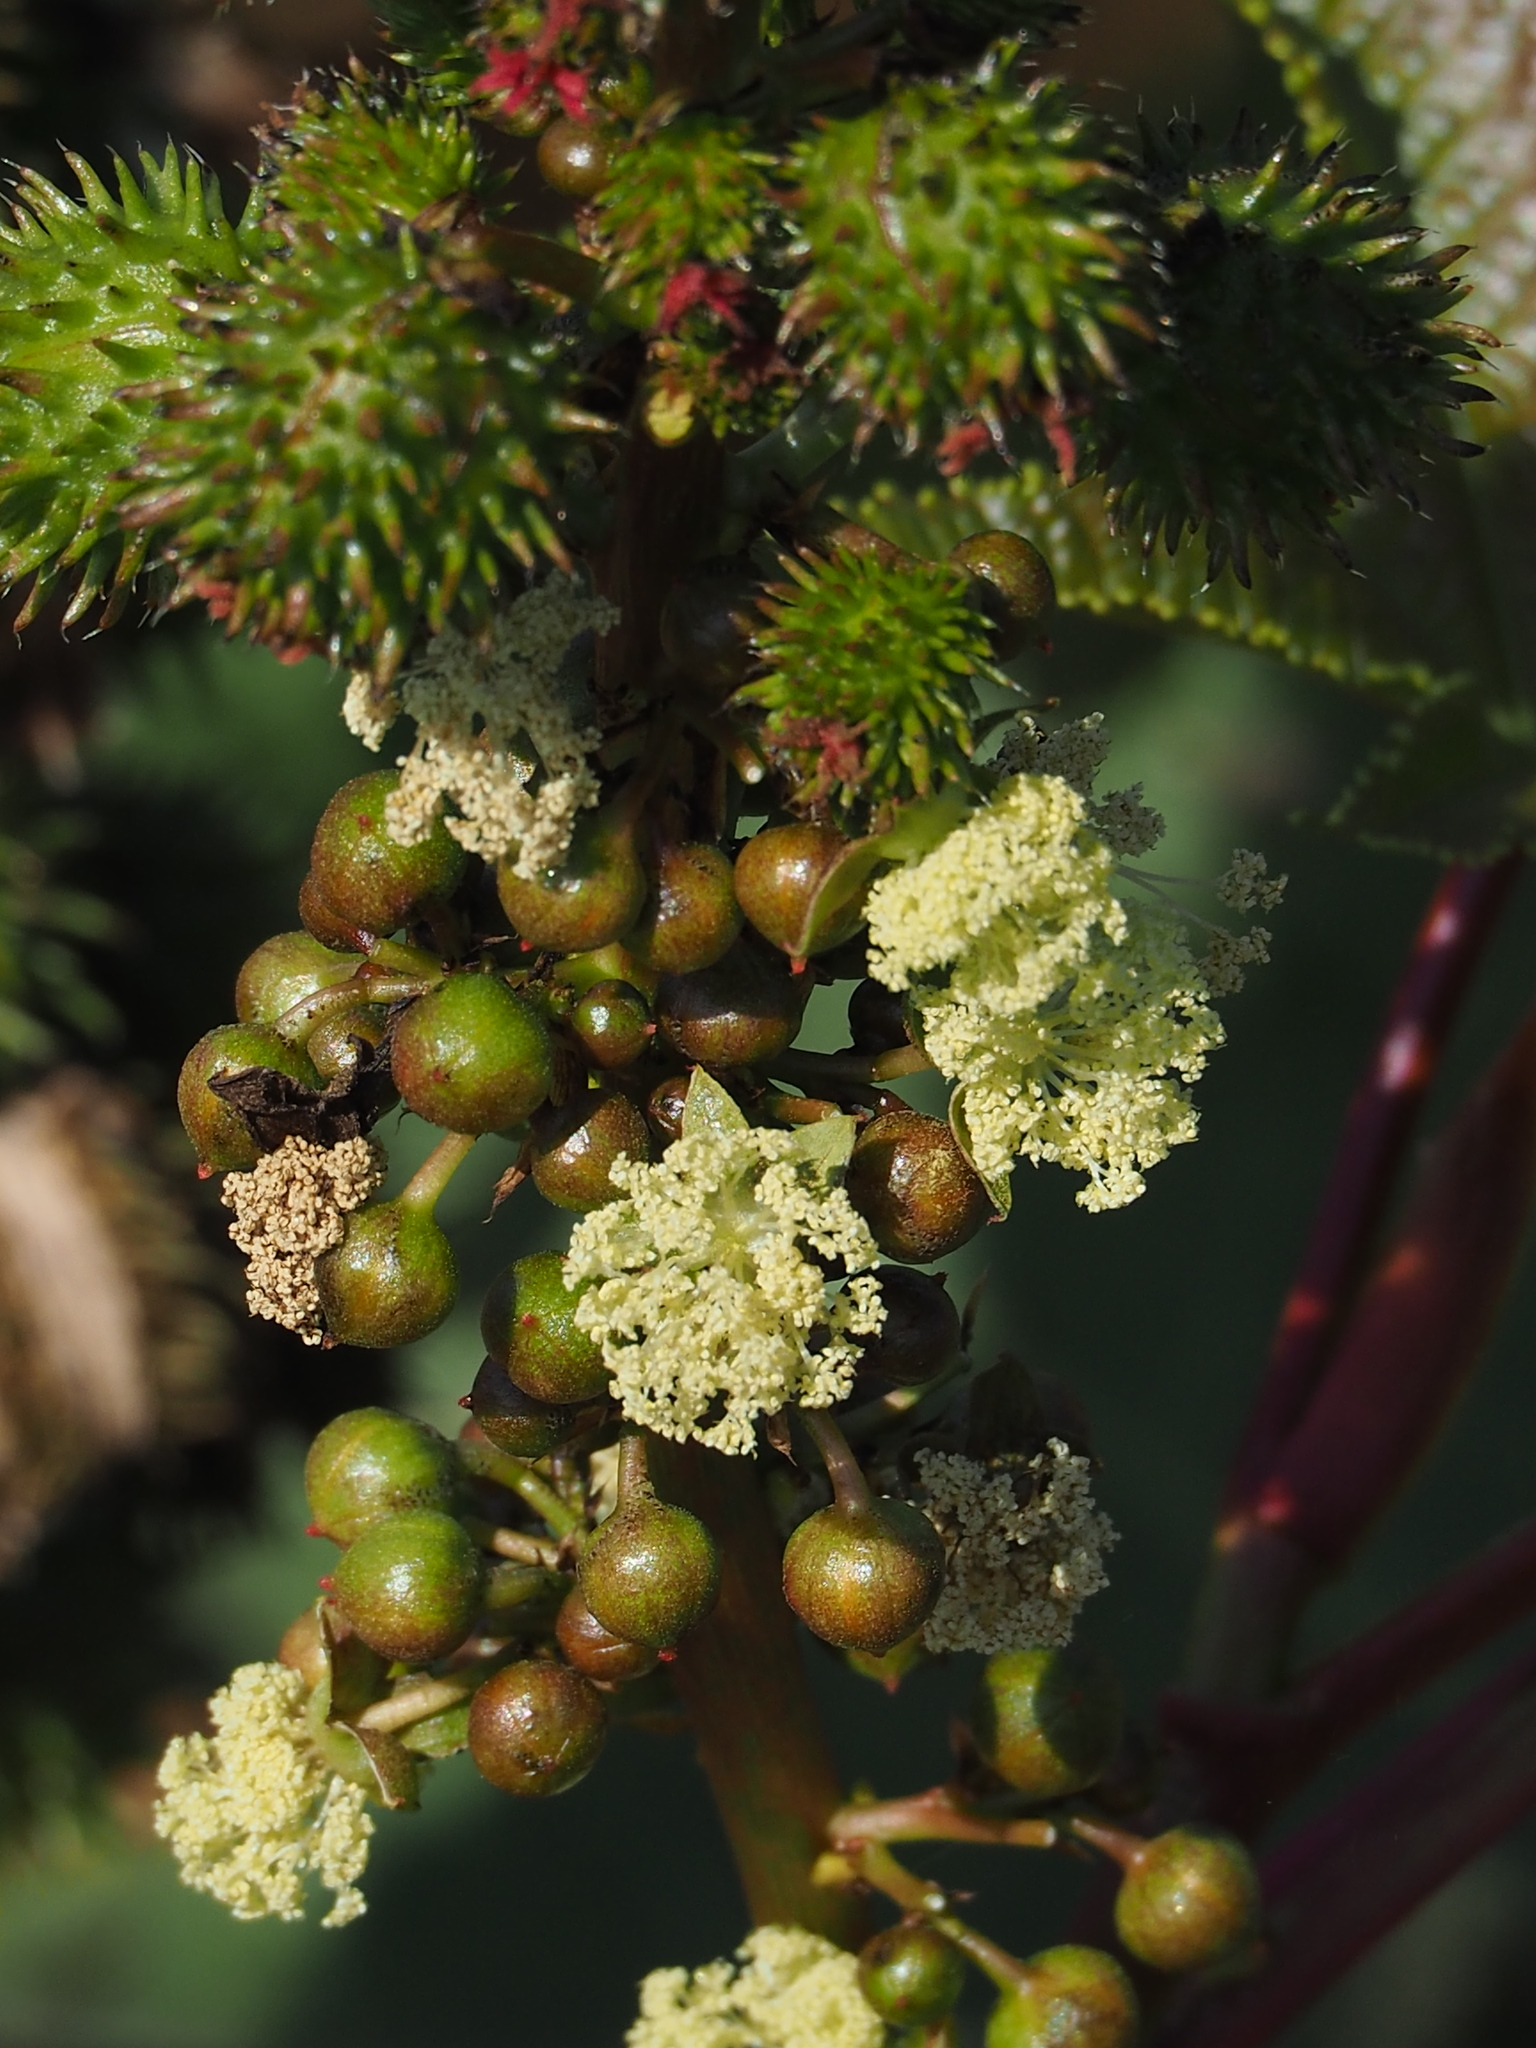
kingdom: Plantae
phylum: Tracheophyta
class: Magnoliopsida
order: Malpighiales
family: Euphorbiaceae
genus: Ricinus
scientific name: Ricinus communis
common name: Castor-oil-plant
